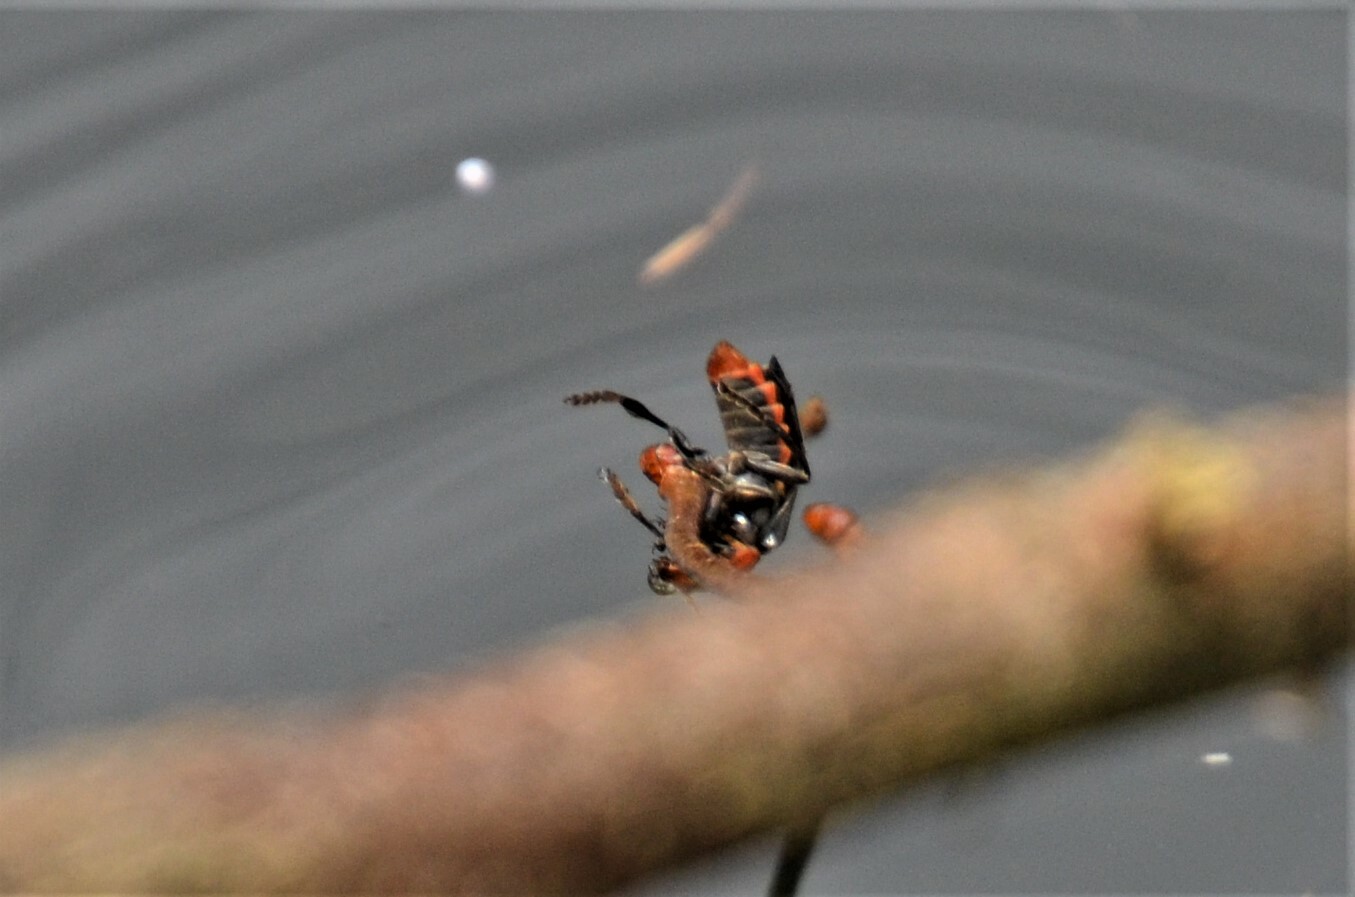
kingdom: Animalia
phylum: Arthropoda
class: Insecta
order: Coleoptera
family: Cantharidae
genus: Cantharis
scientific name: Cantharis fusca
